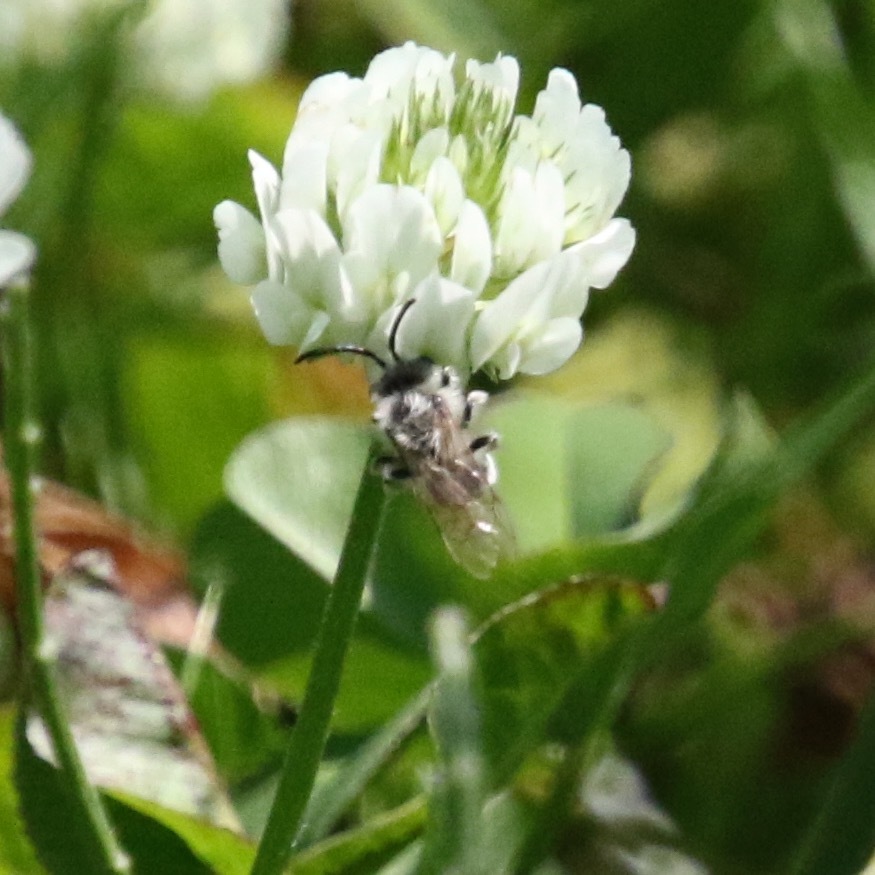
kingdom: Animalia
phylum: Arthropoda
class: Insecta
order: Hymenoptera
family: Andrenidae
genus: Andrena
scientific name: Andrena wilkella
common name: Wilke's mining bee
